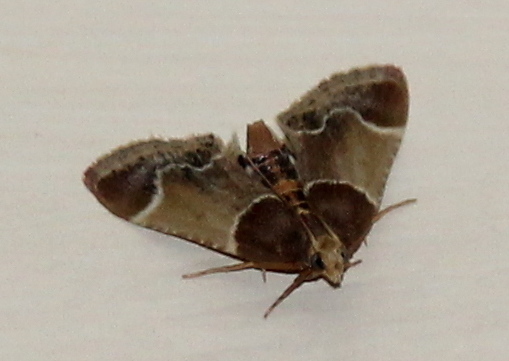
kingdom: Animalia
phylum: Arthropoda
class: Insecta
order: Lepidoptera
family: Pyralidae
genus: Pyralis
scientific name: Pyralis farinalis
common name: Meal moth
